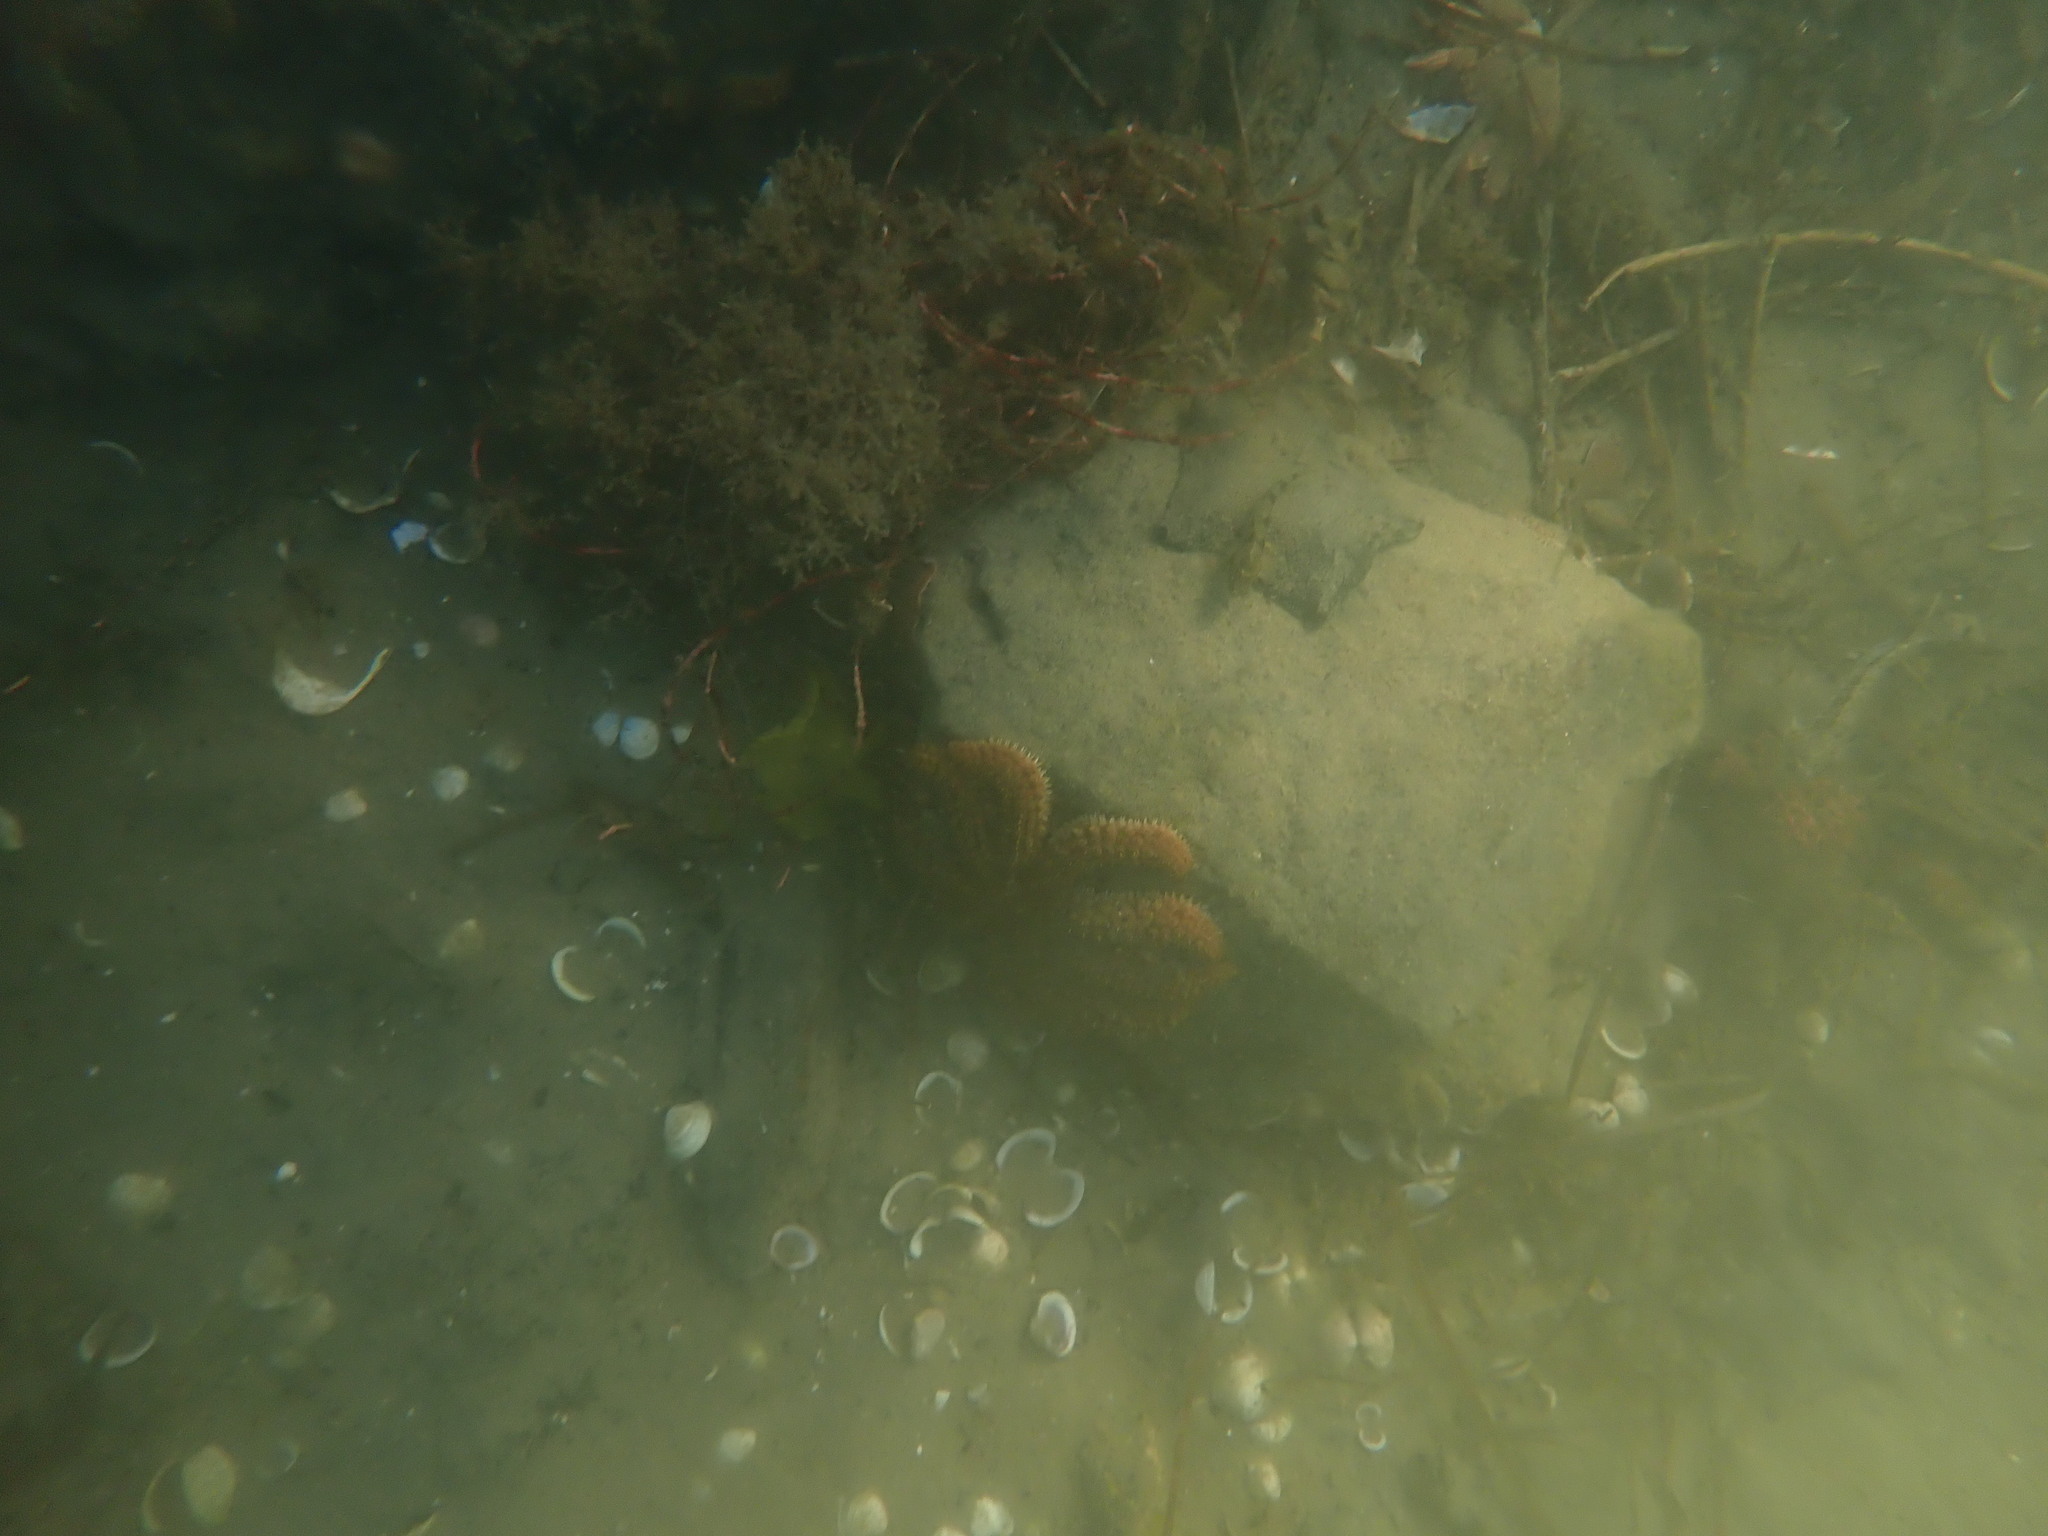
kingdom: Animalia
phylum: Echinodermata
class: Asteroidea
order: Forcipulatida
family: Asteriidae
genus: Coscinasterias
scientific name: Coscinasterias muricata
